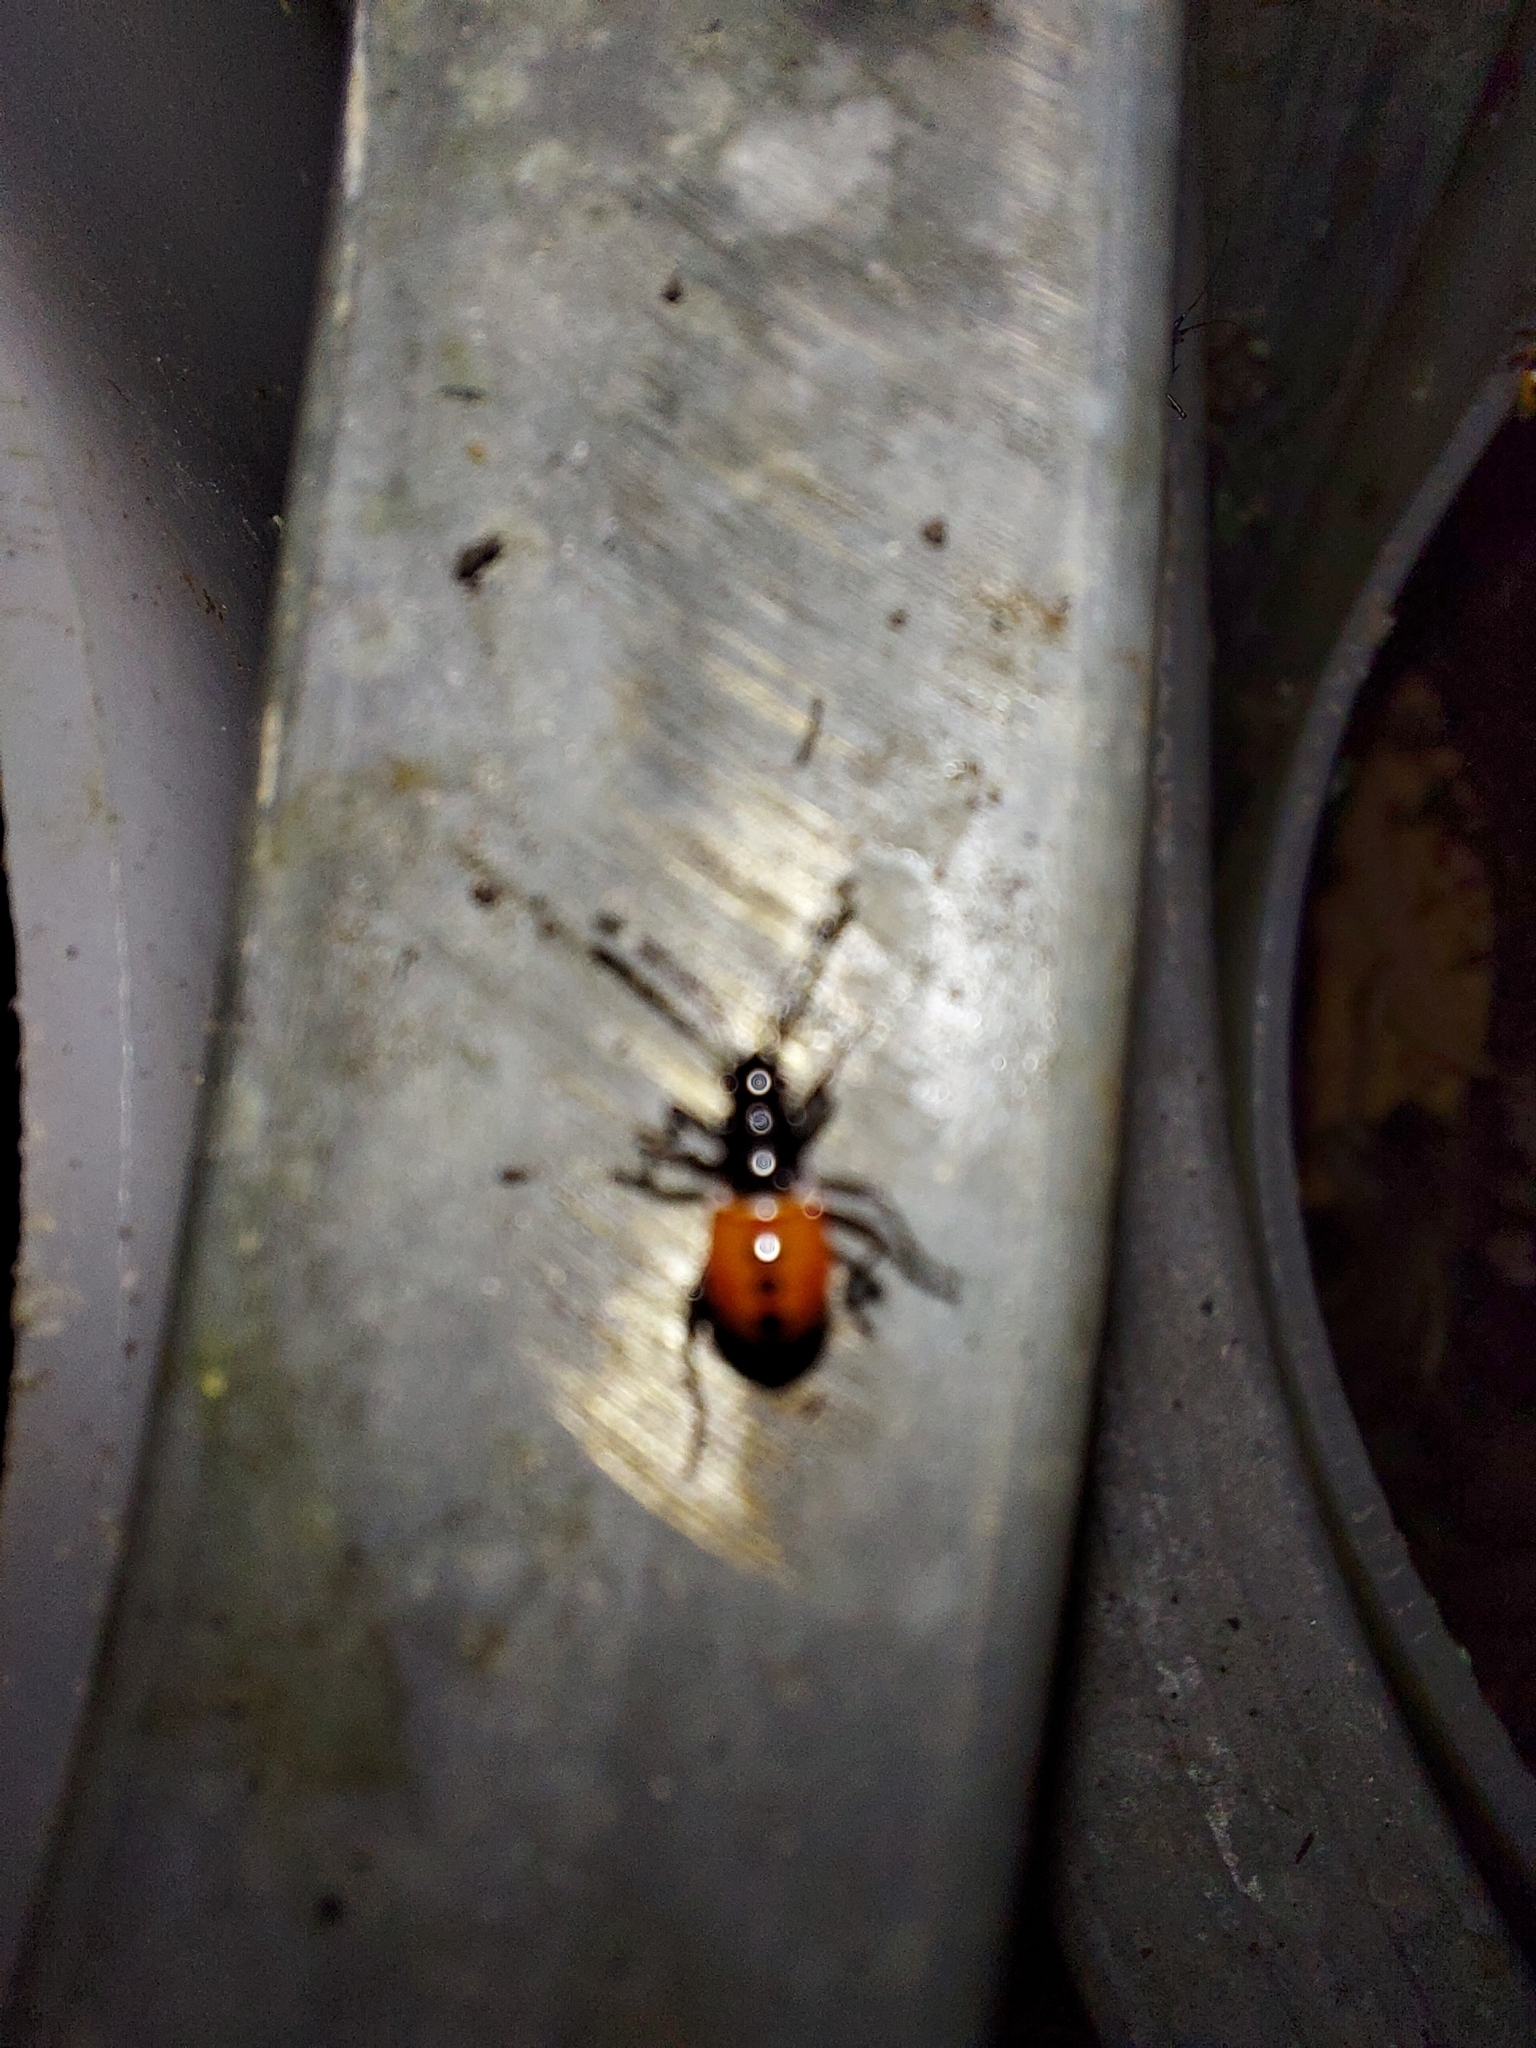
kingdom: Animalia
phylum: Arthropoda
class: Insecta
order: Hemiptera
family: Pyrrhocoridae
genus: Dindymus
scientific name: Dindymus
